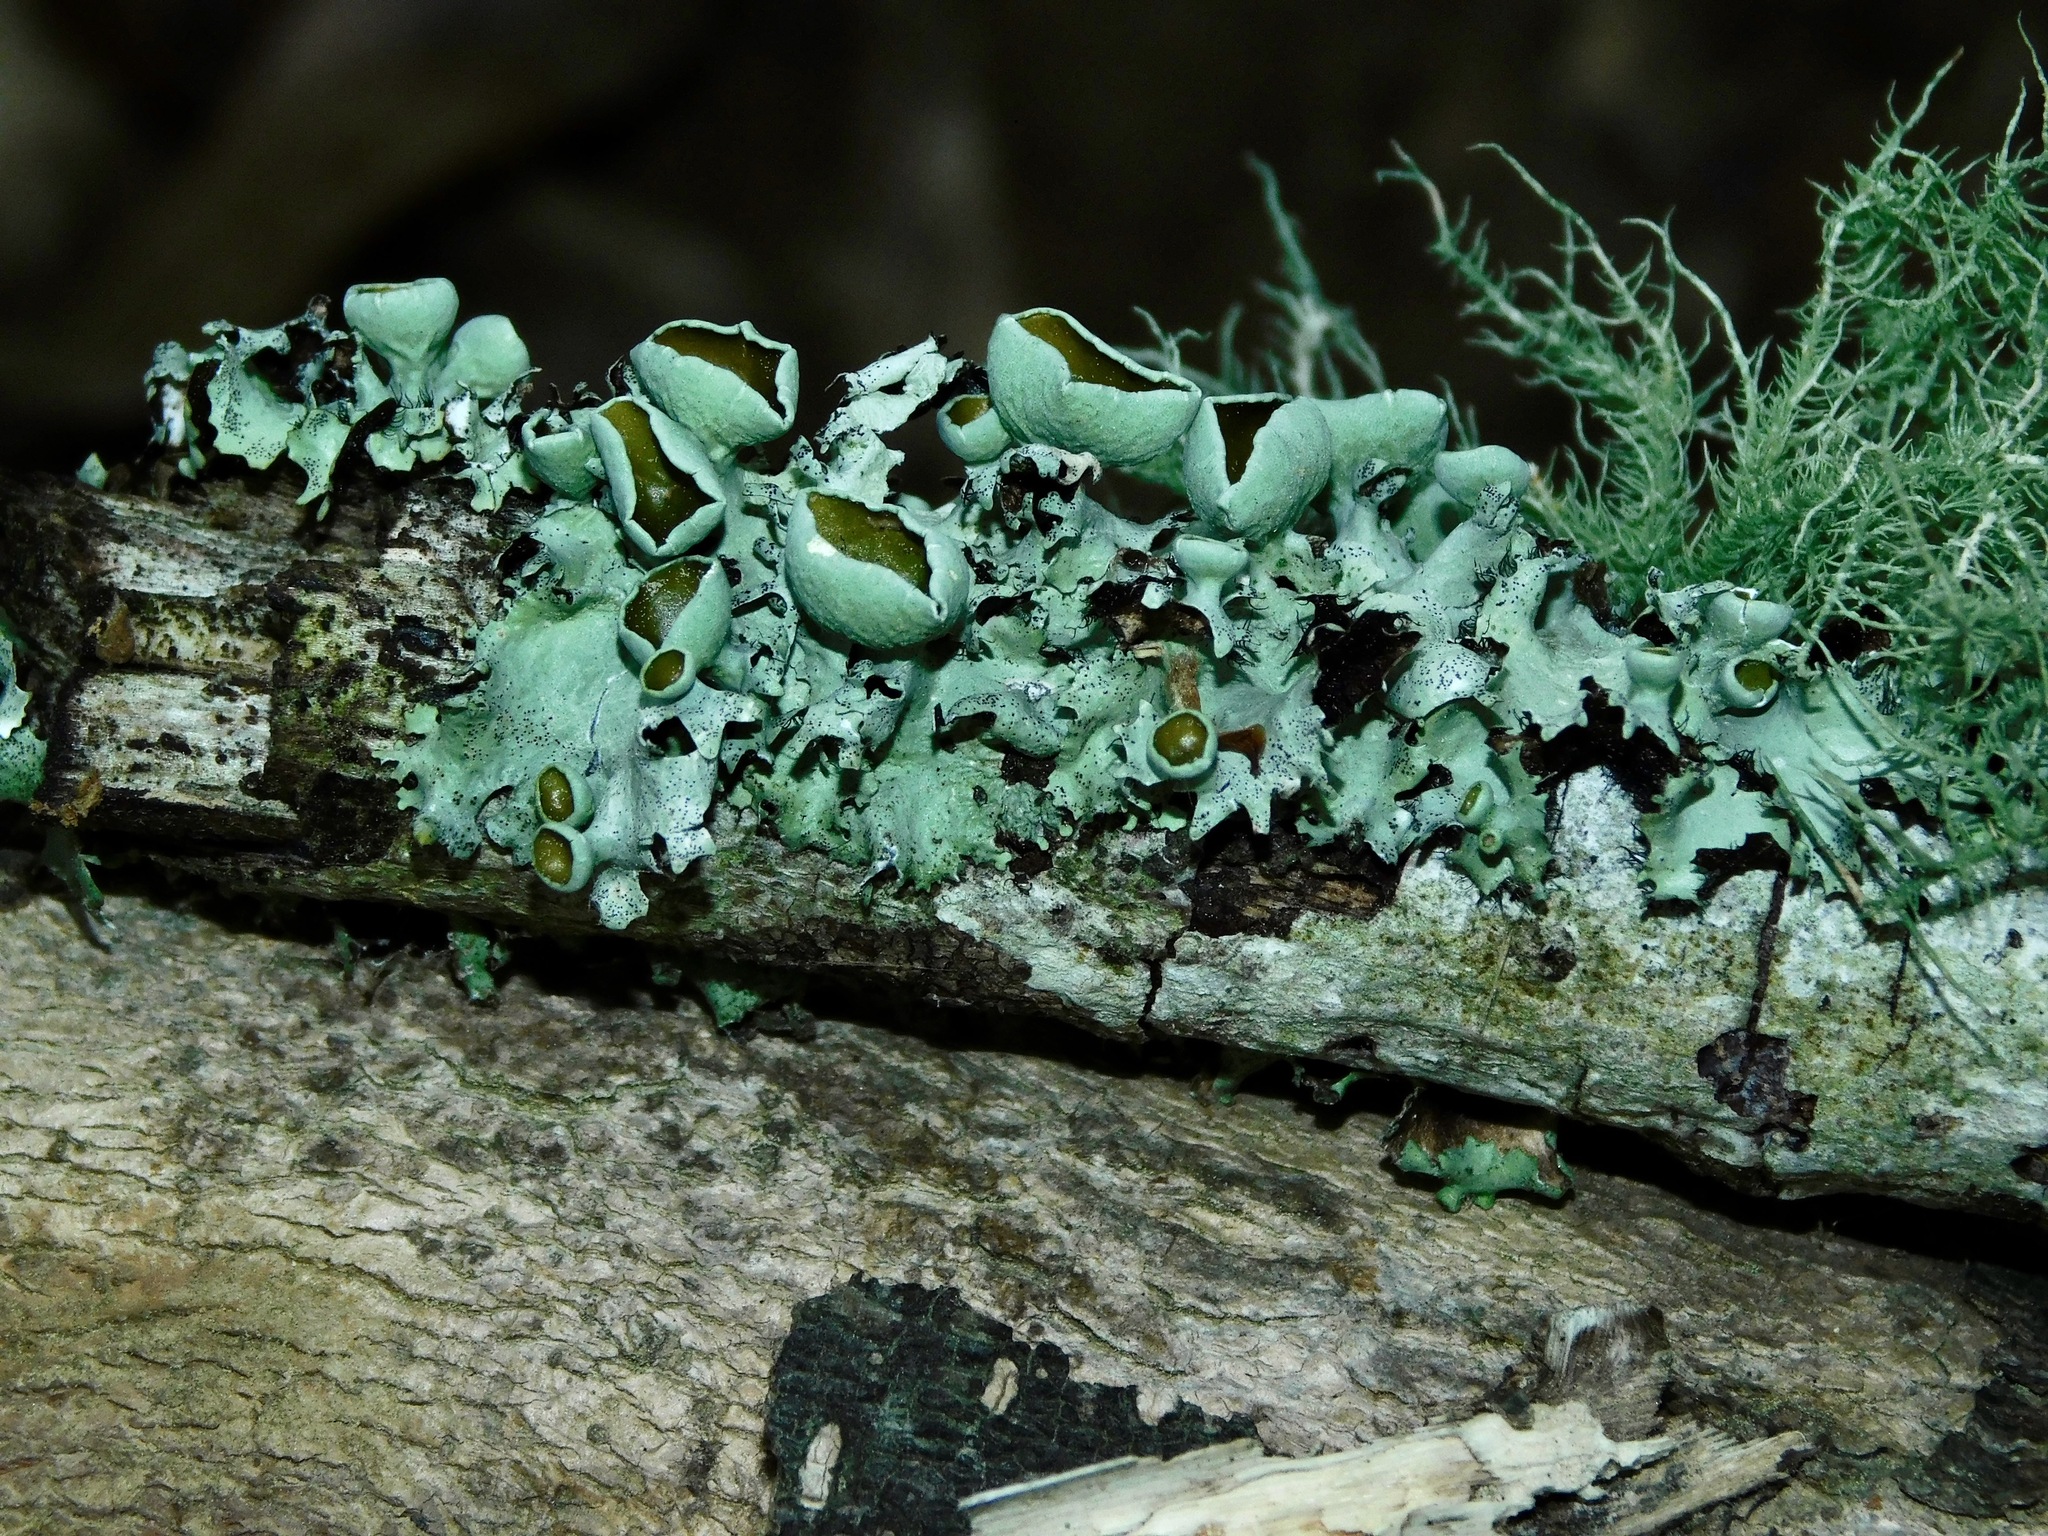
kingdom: Fungi
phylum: Ascomycota
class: Lecanoromycetes
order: Lecanorales
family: Parmeliaceae
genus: Parmotrema
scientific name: Parmotrema cetratum
